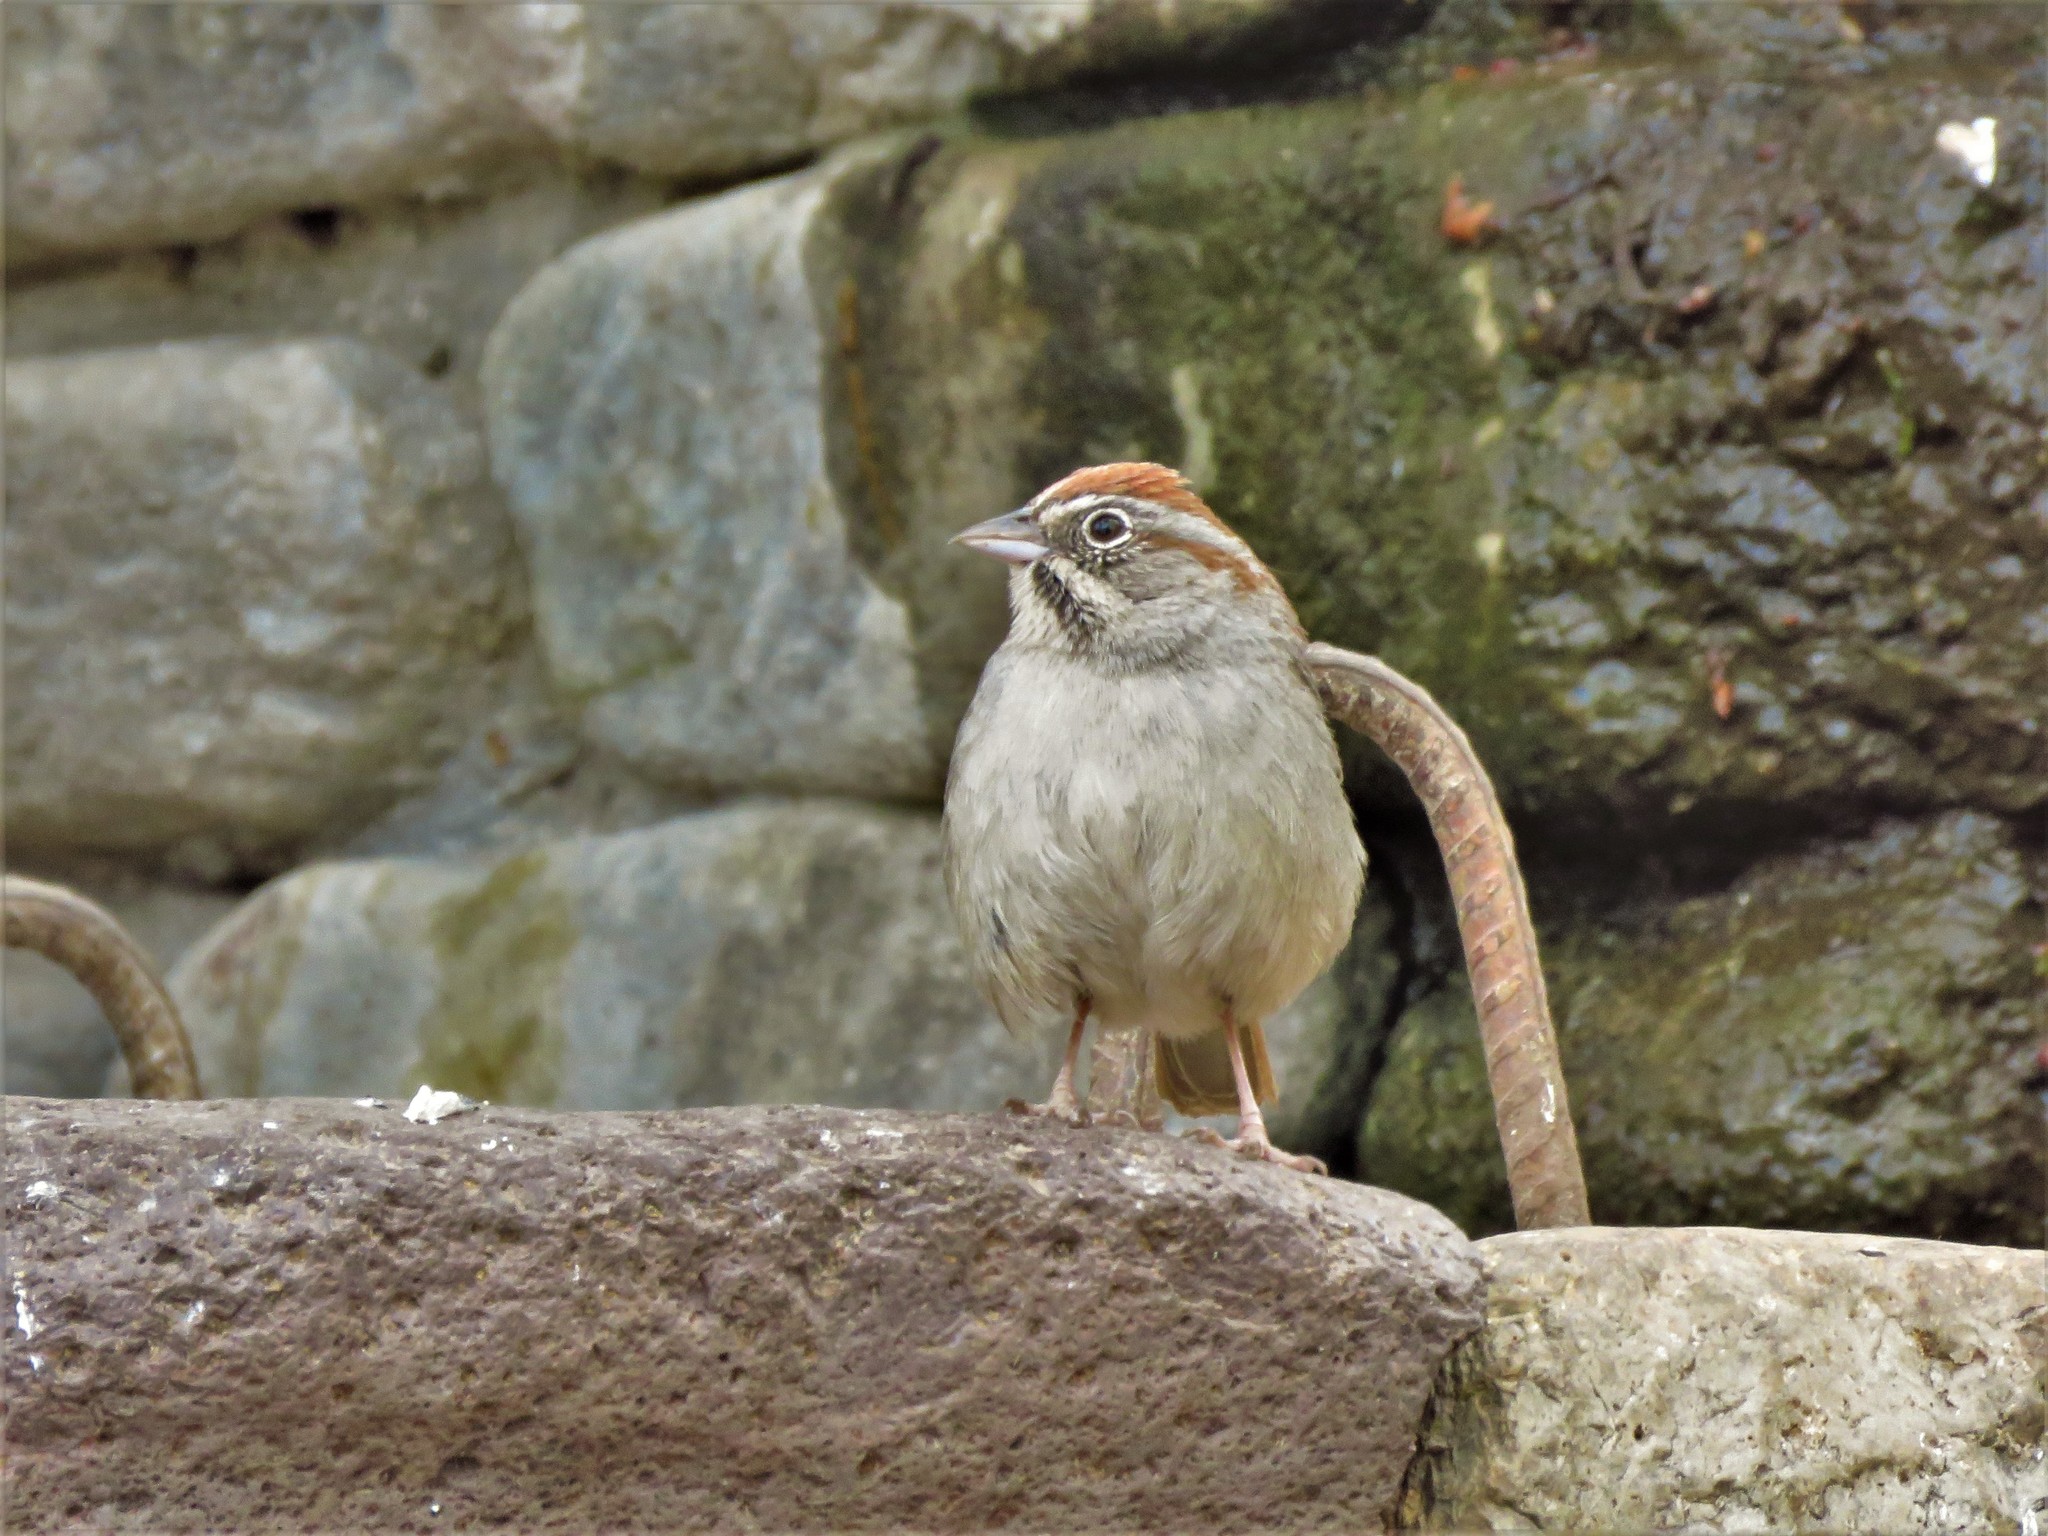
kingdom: Animalia
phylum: Chordata
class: Aves
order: Passeriformes
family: Passerellidae
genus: Aimophila
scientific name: Aimophila ruficeps
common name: Rufous-crowned sparrow
